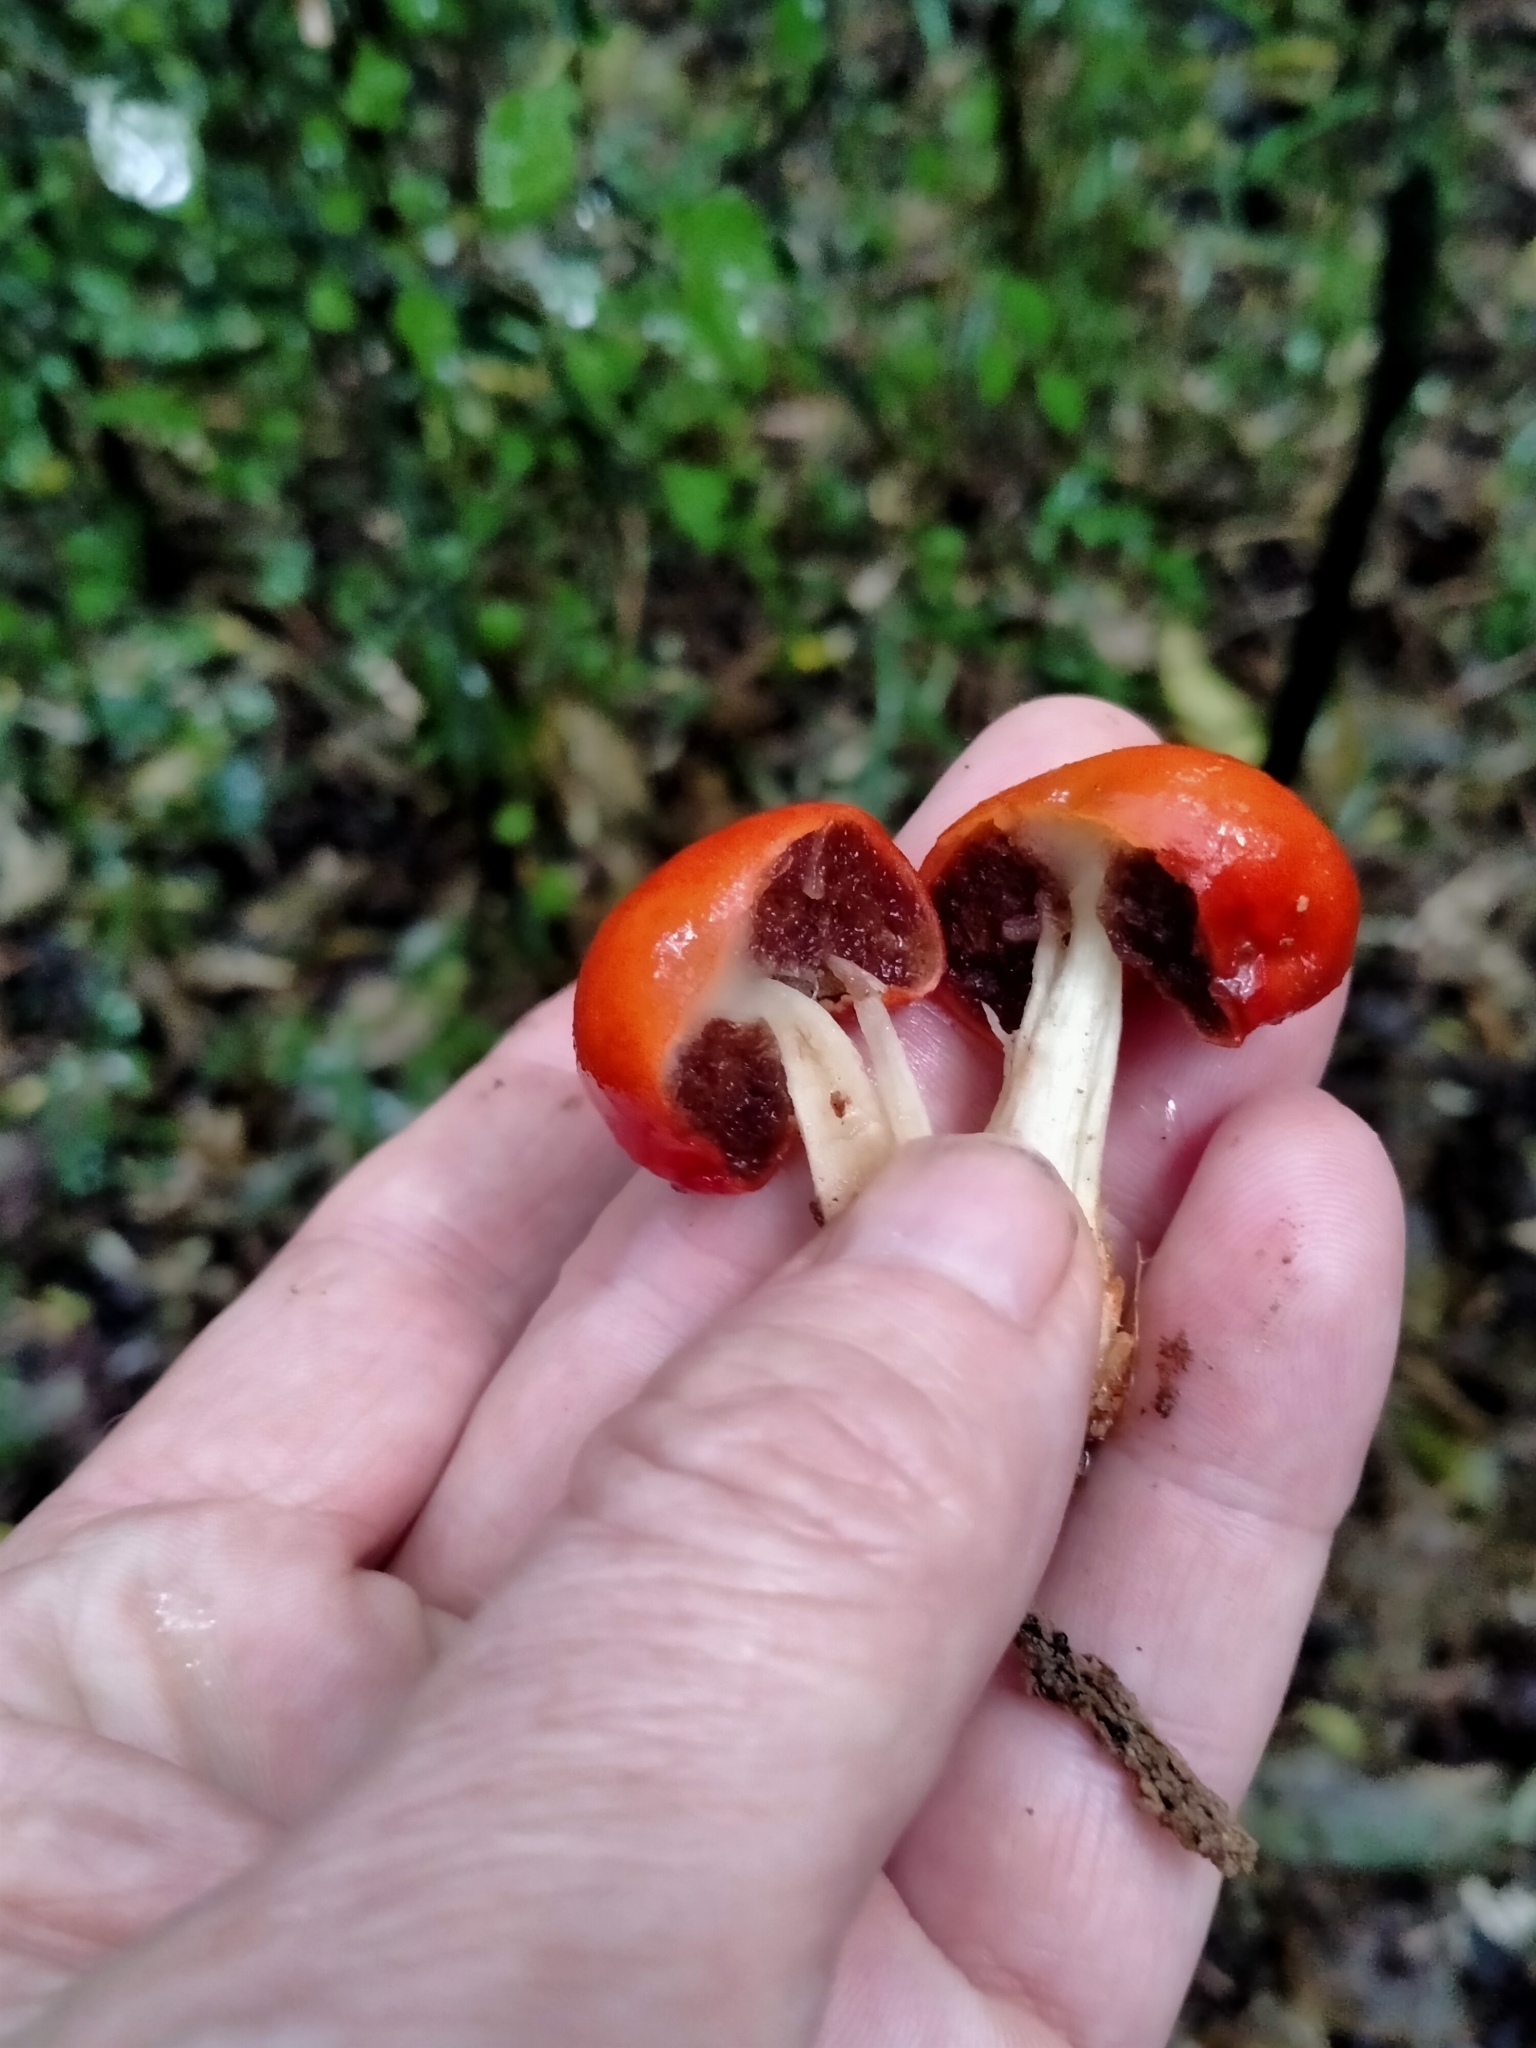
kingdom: Fungi
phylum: Basidiomycota
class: Agaricomycetes
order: Agaricales
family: Strophariaceae
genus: Leratiomyces
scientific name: Leratiomyces erythrocephalus
